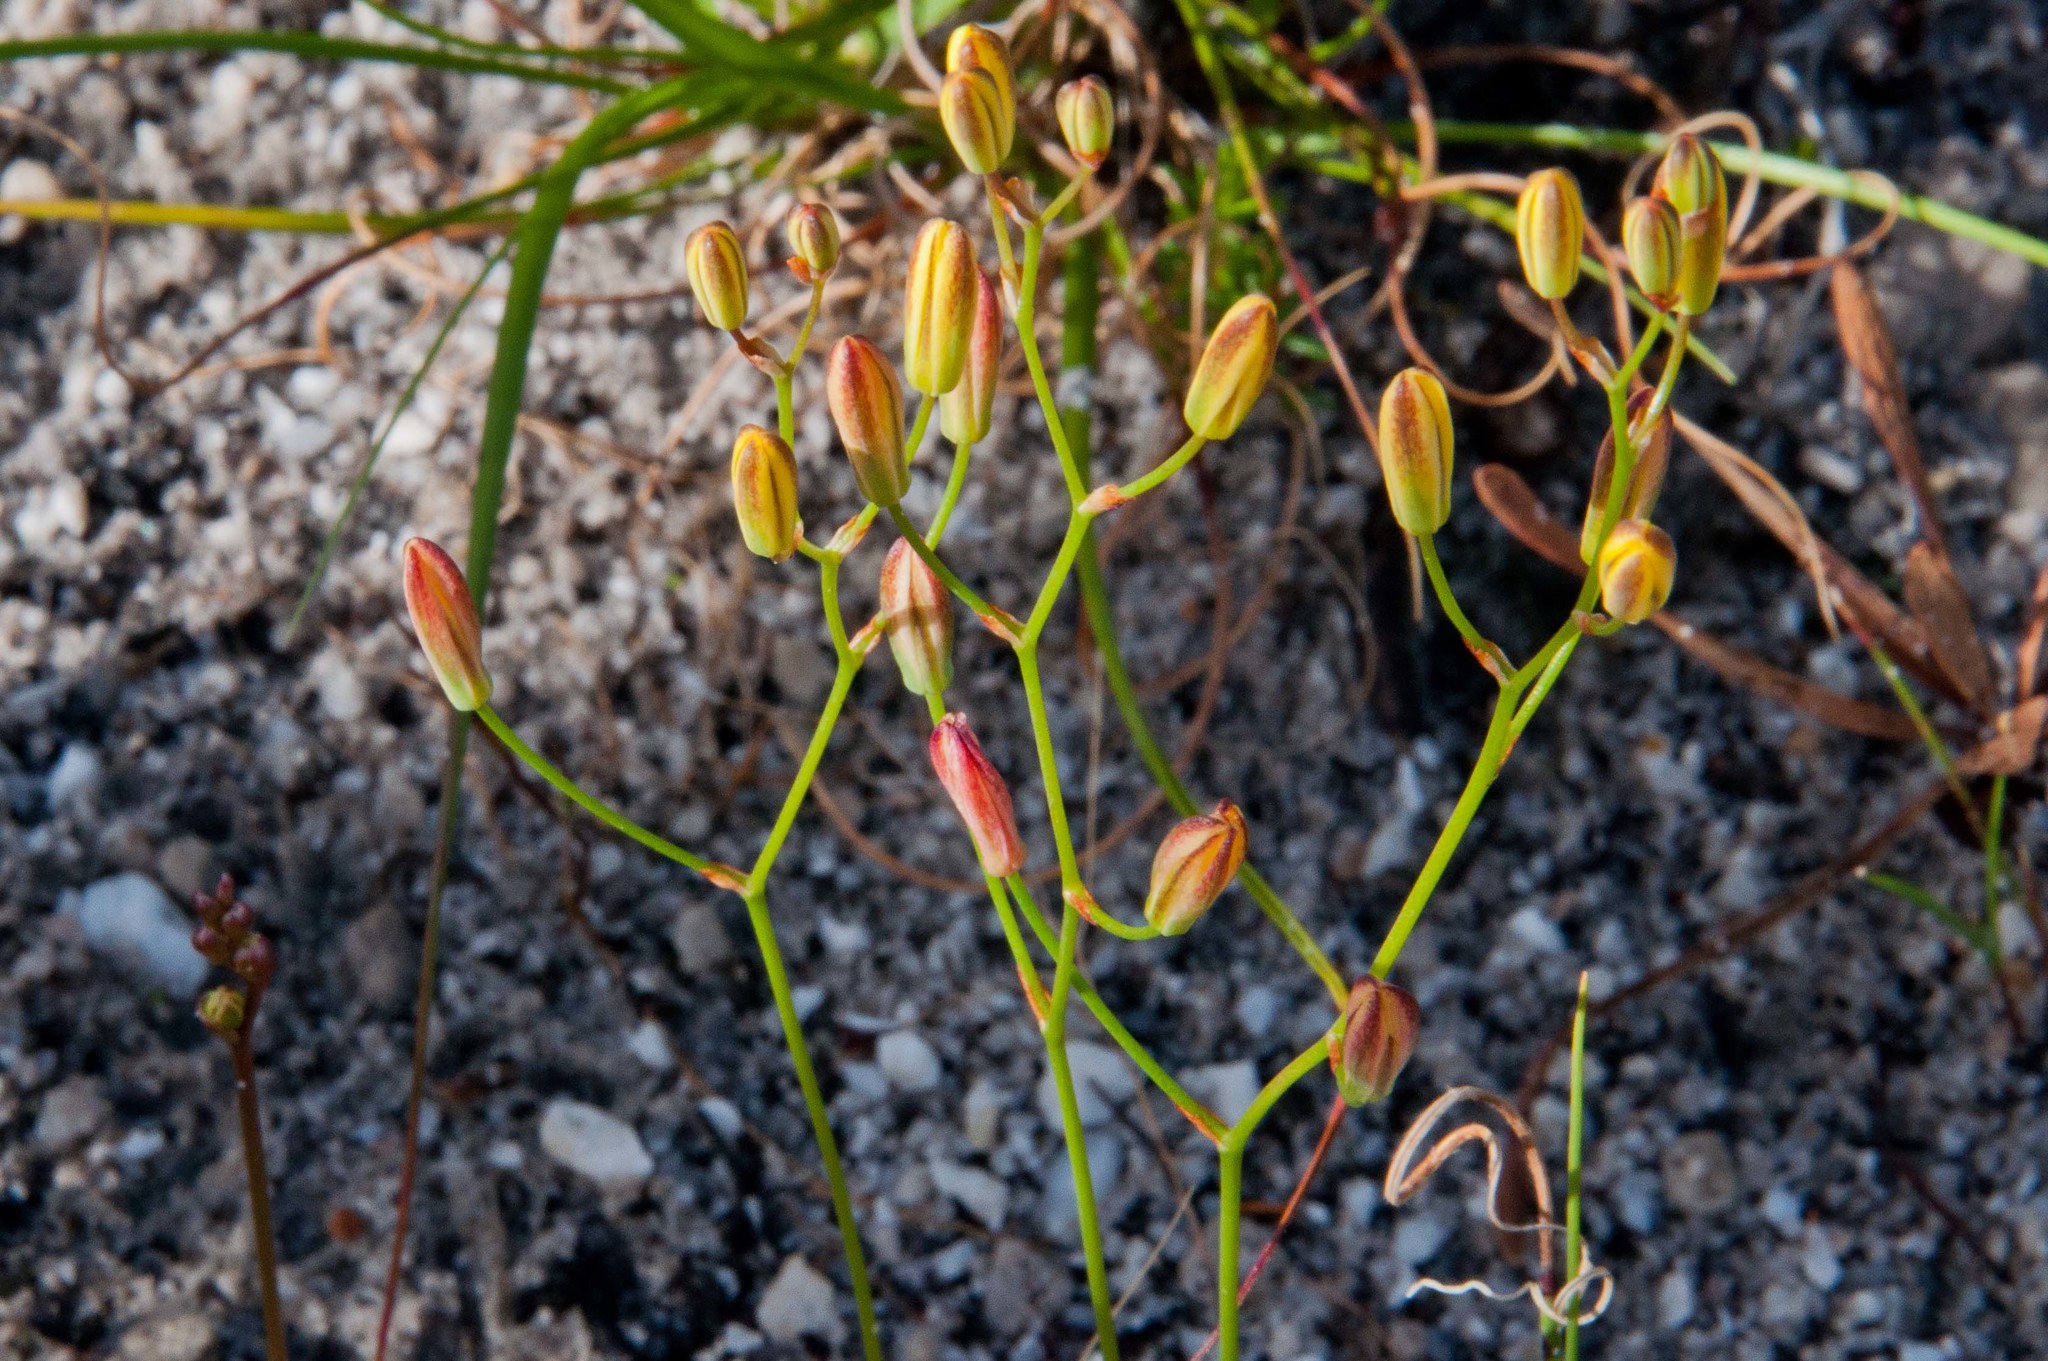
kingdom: Plantae
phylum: Tracheophyta
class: Liliopsida
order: Asparagales
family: Asparagaceae
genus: Eriospermum
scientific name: Eriospermum schlechteri
